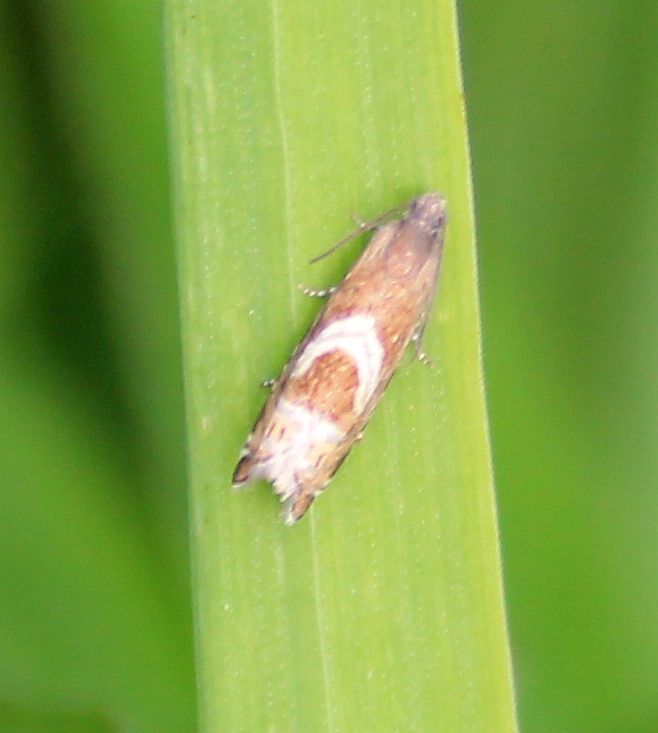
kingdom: Animalia
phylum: Arthropoda
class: Insecta
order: Lepidoptera
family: Tortricidae
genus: Grapholita
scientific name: Grapholita
